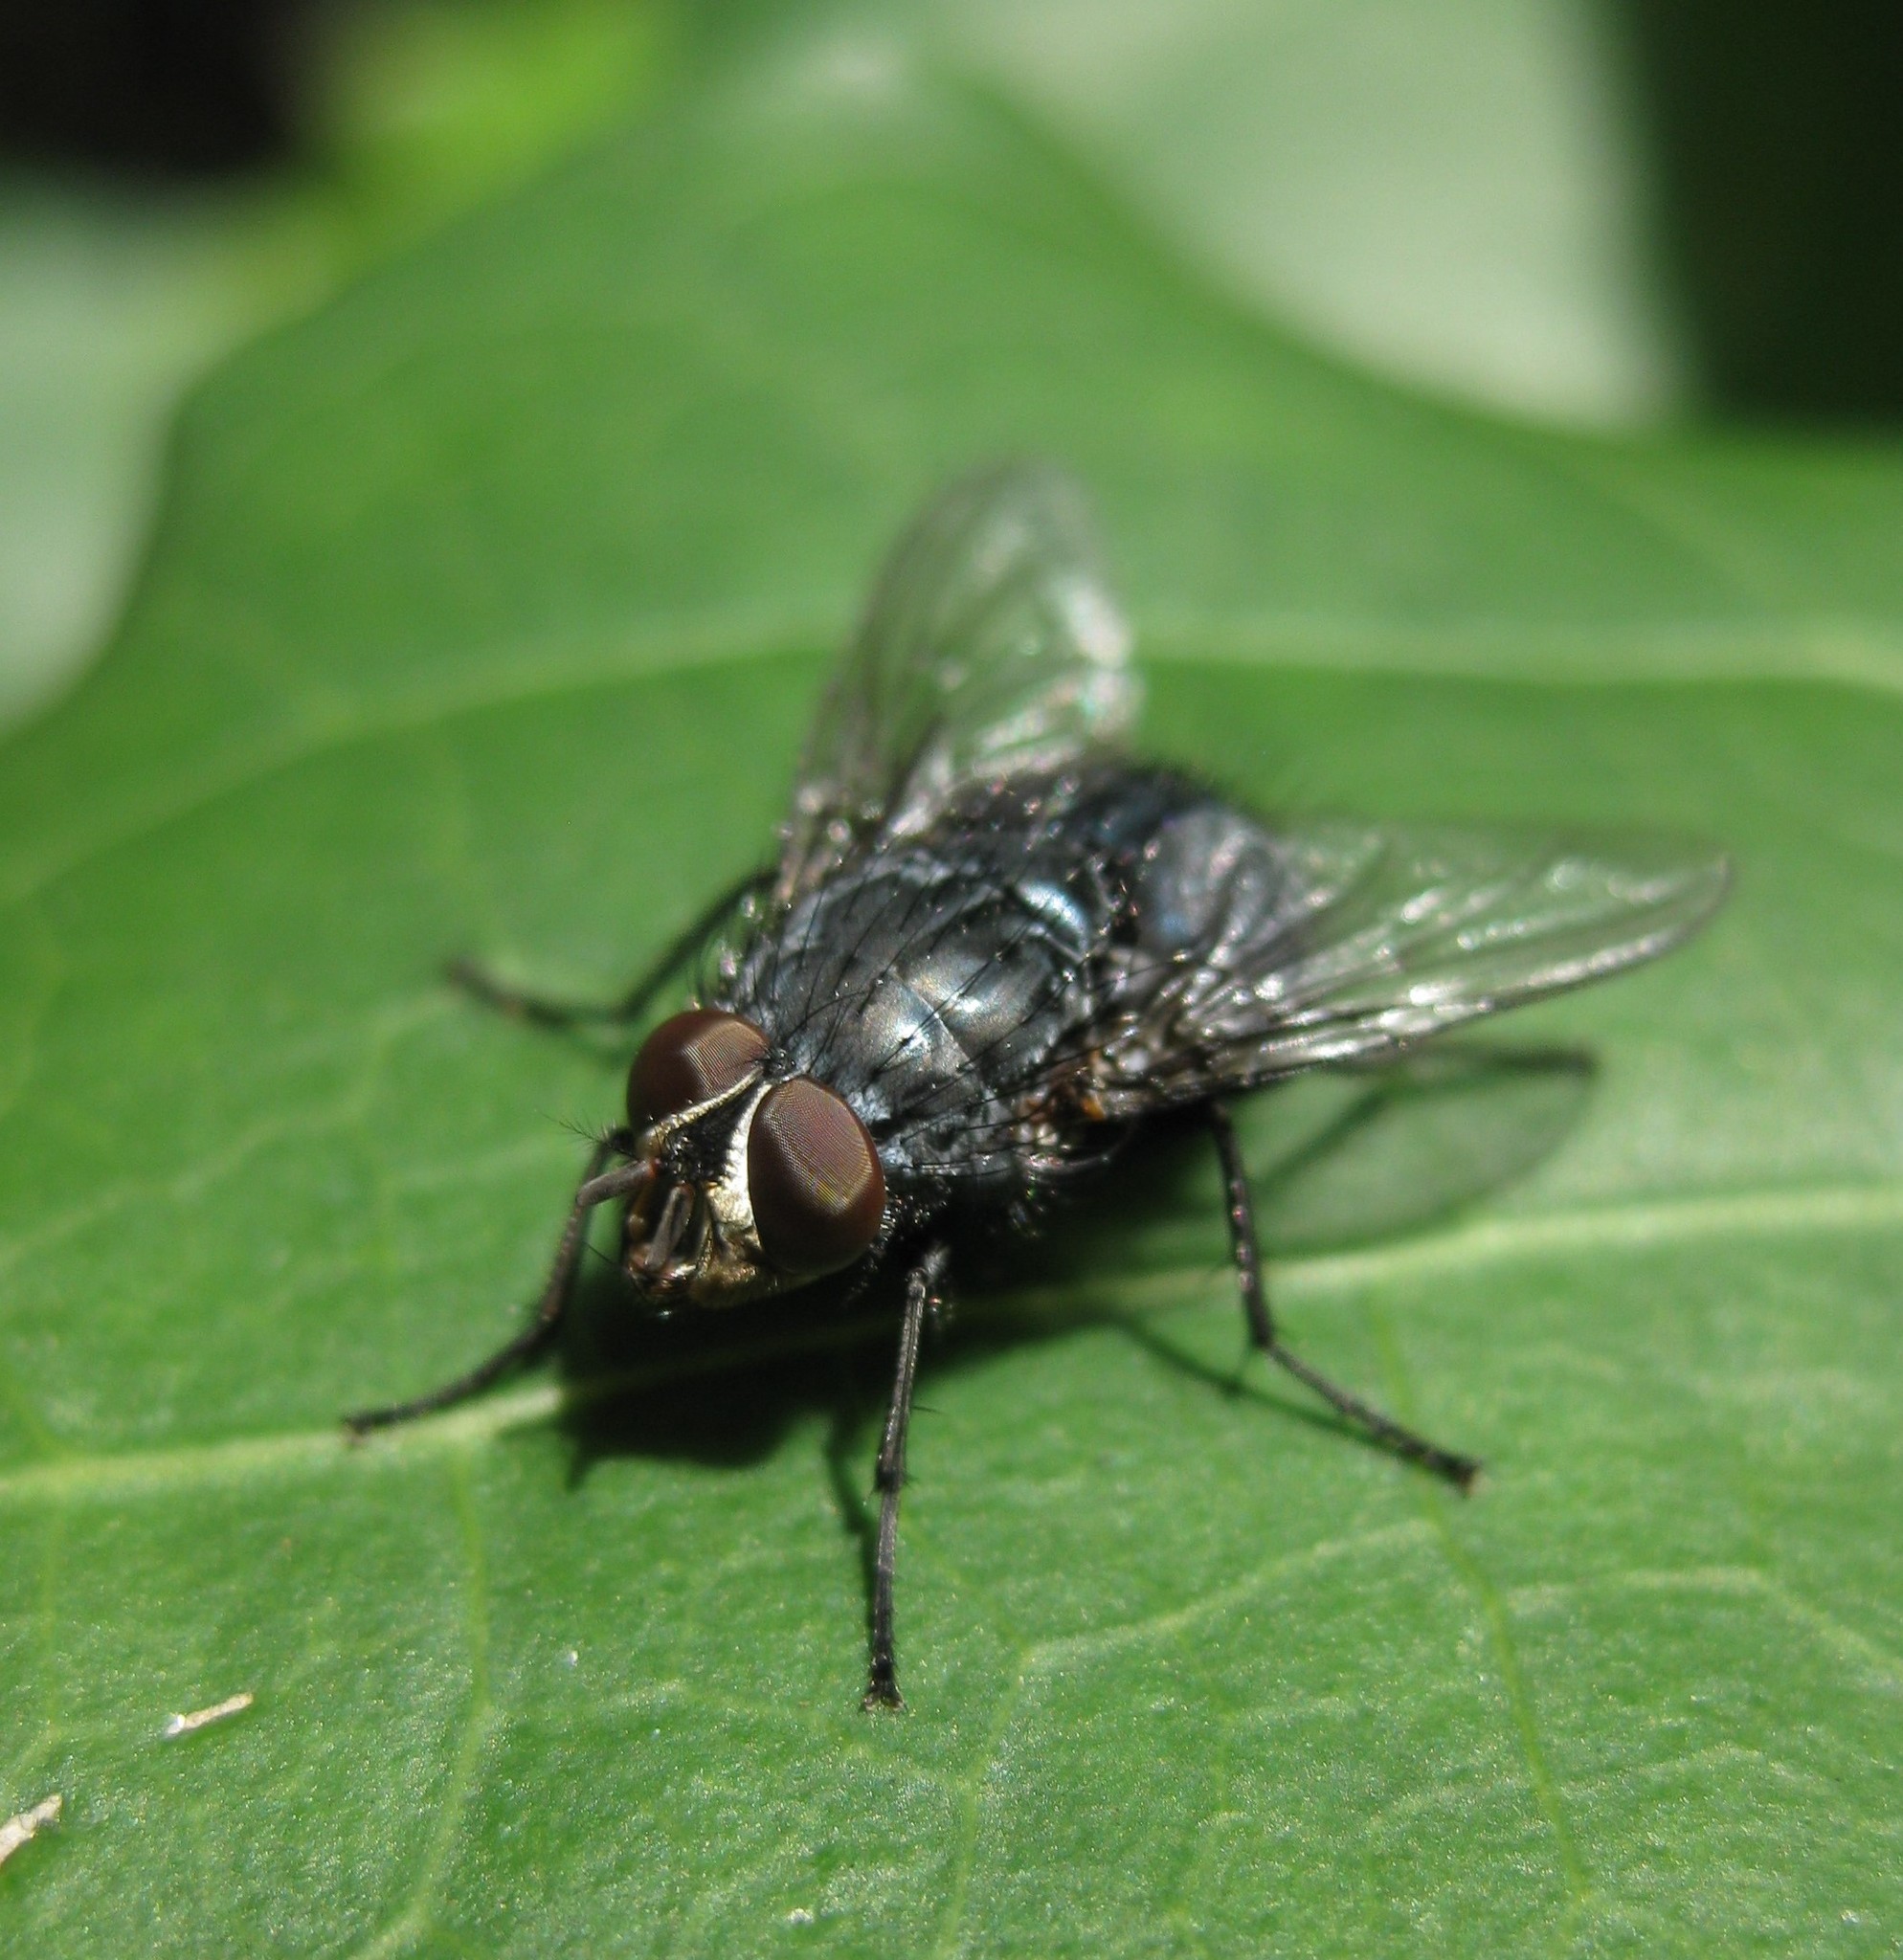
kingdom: Animalia
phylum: Arthropoda
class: Insecta
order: Diptera
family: Calliphoridae
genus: Calliphora
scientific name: Calliphora vicina
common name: Common blow flie
